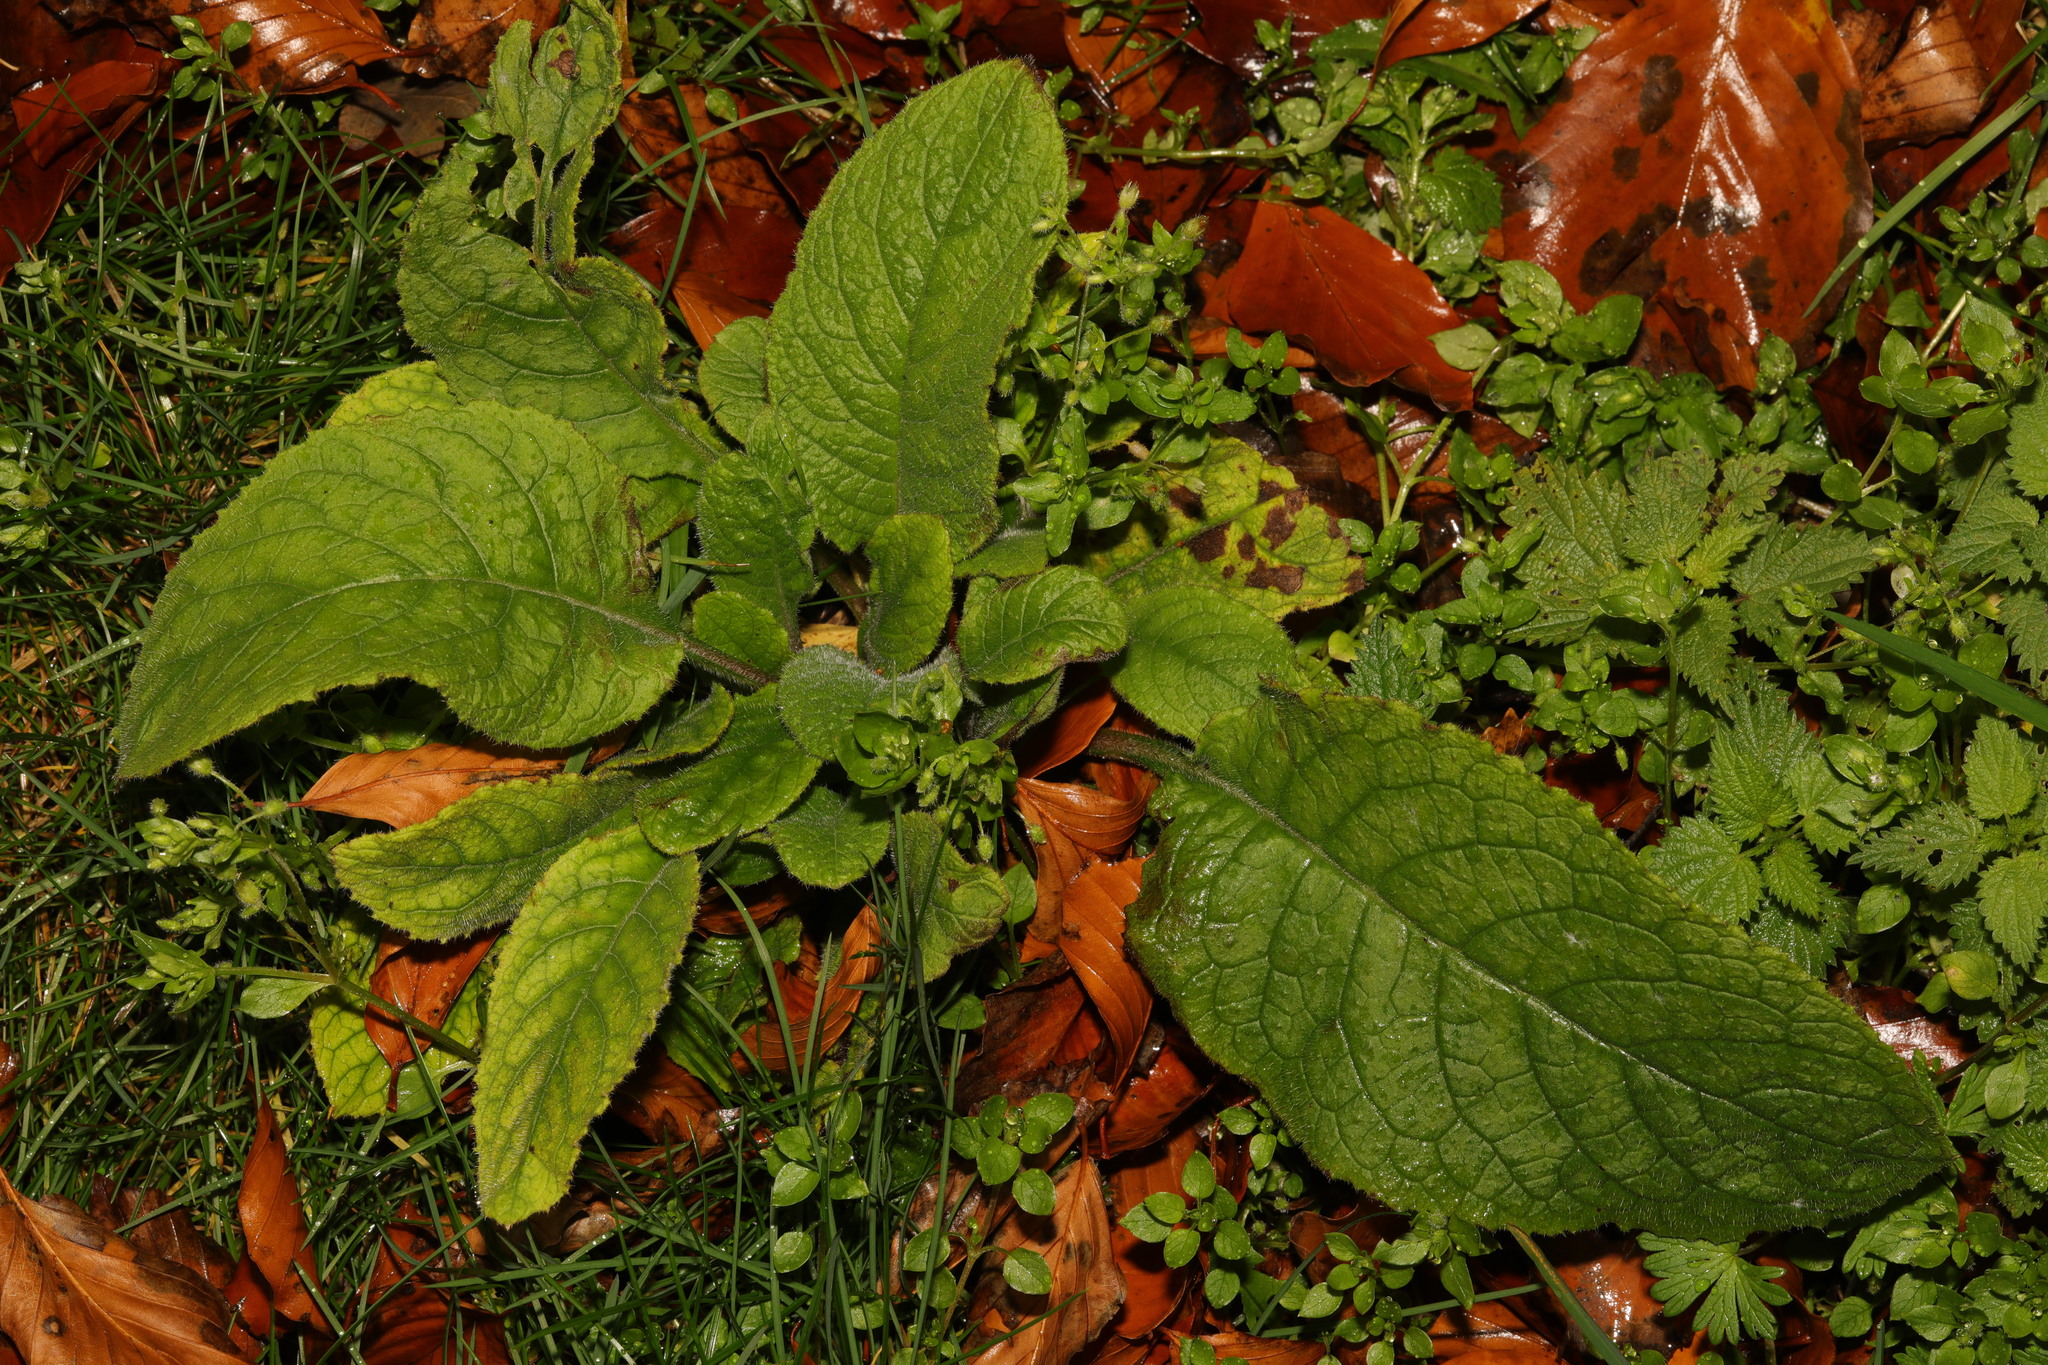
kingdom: Plantae
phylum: Tracheophyta
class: Magnoliopsida
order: Lamiales
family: Plantaginaceae
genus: Digitalis
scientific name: Digitalis purpurea
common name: Foxglove
